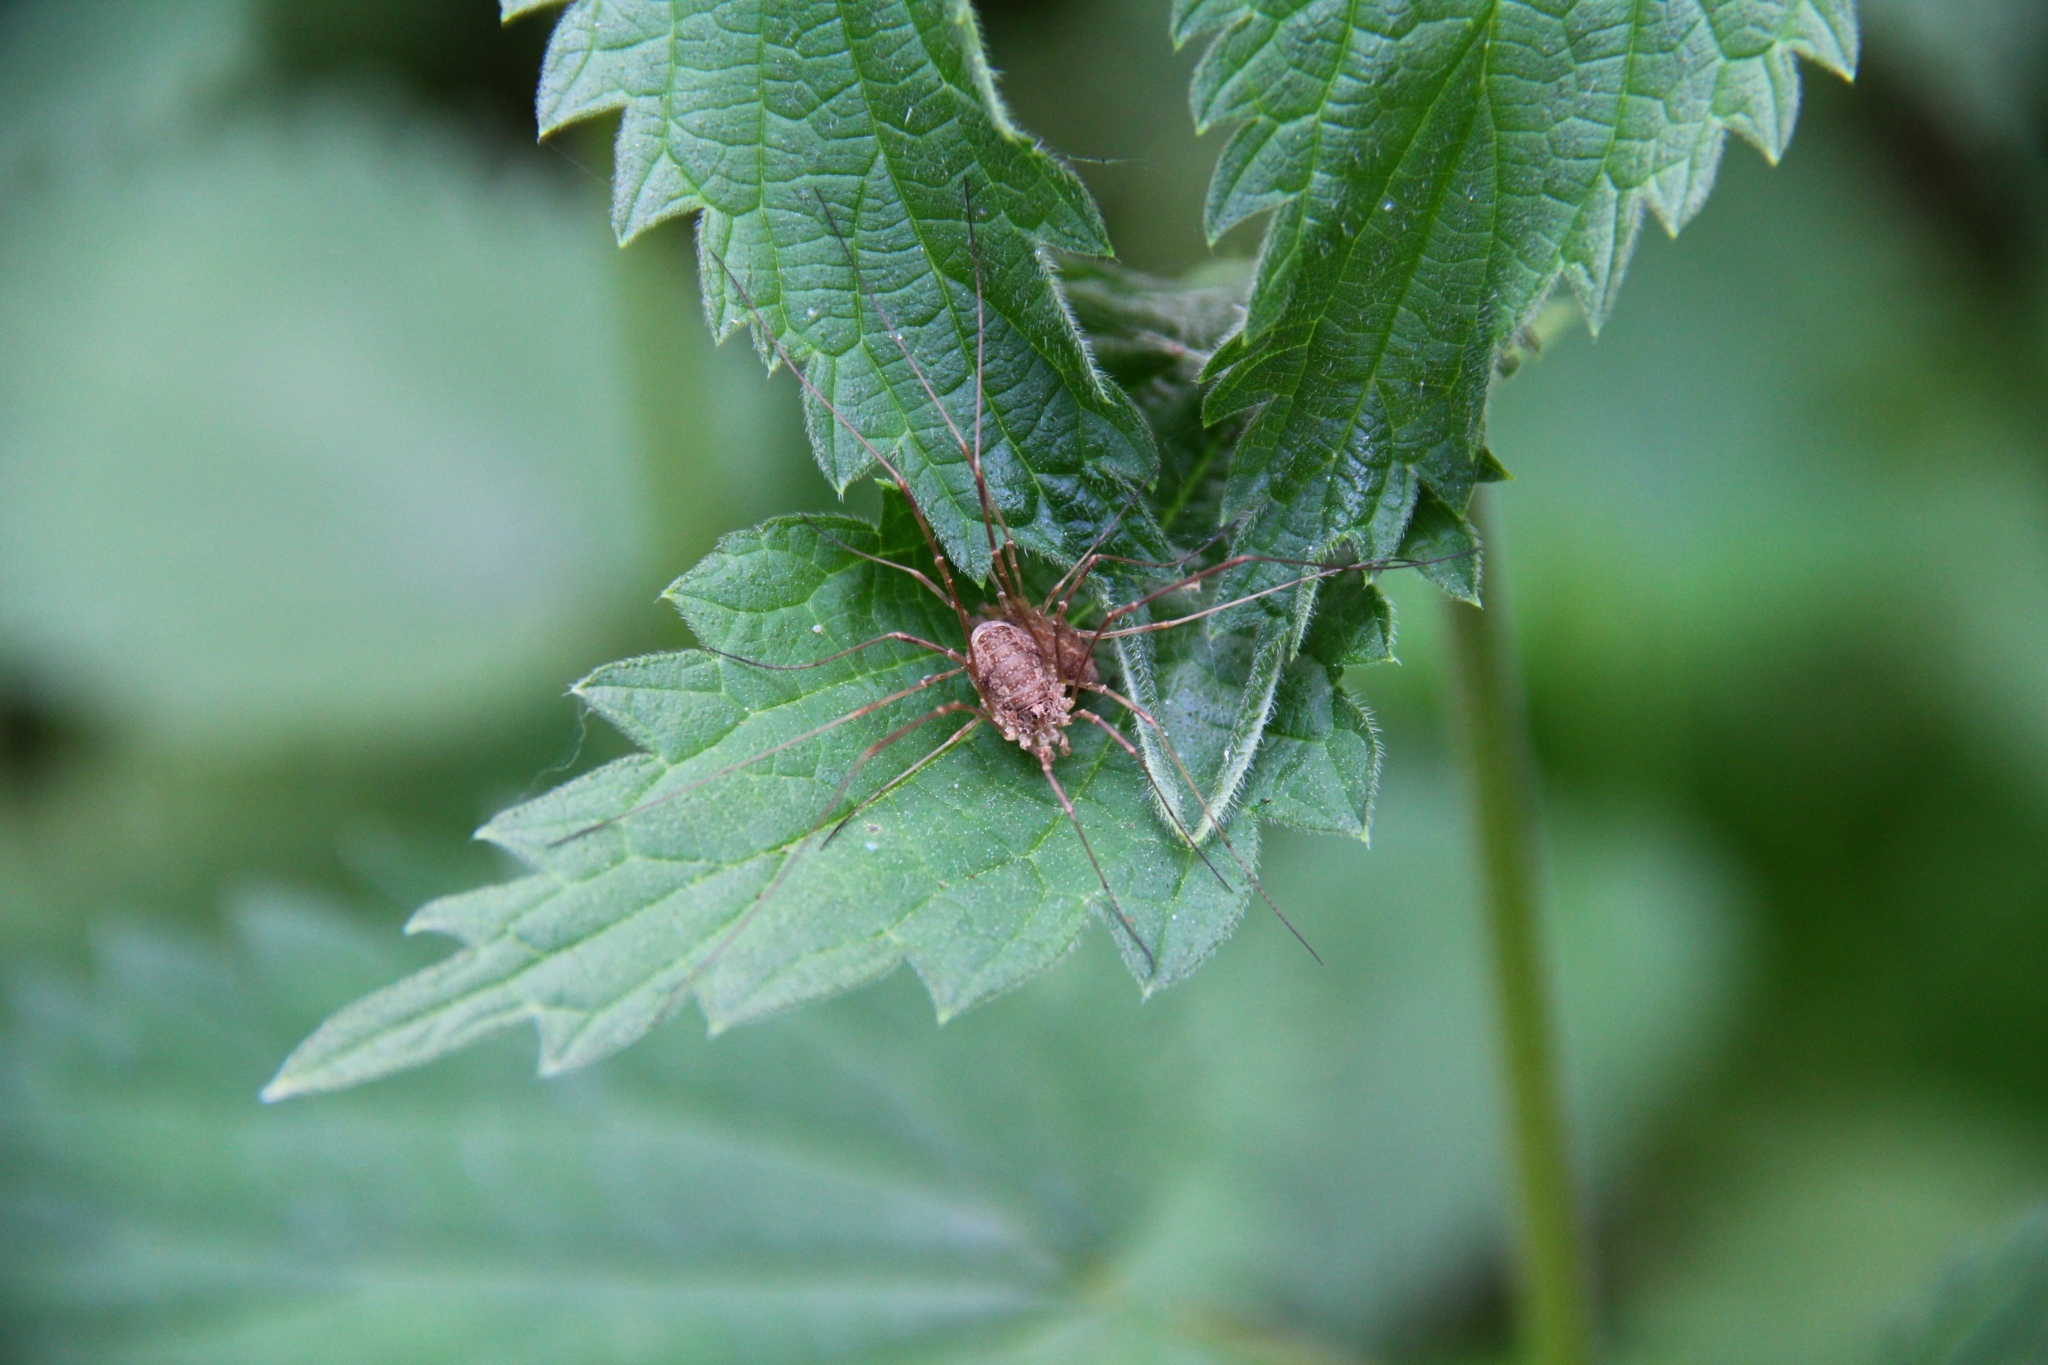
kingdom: Animalia
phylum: Arthropoda
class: Arachnida
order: Opiliones
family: Phalangiidae
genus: Rilaena
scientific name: Rilaena triangularis
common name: Spring harvestman
